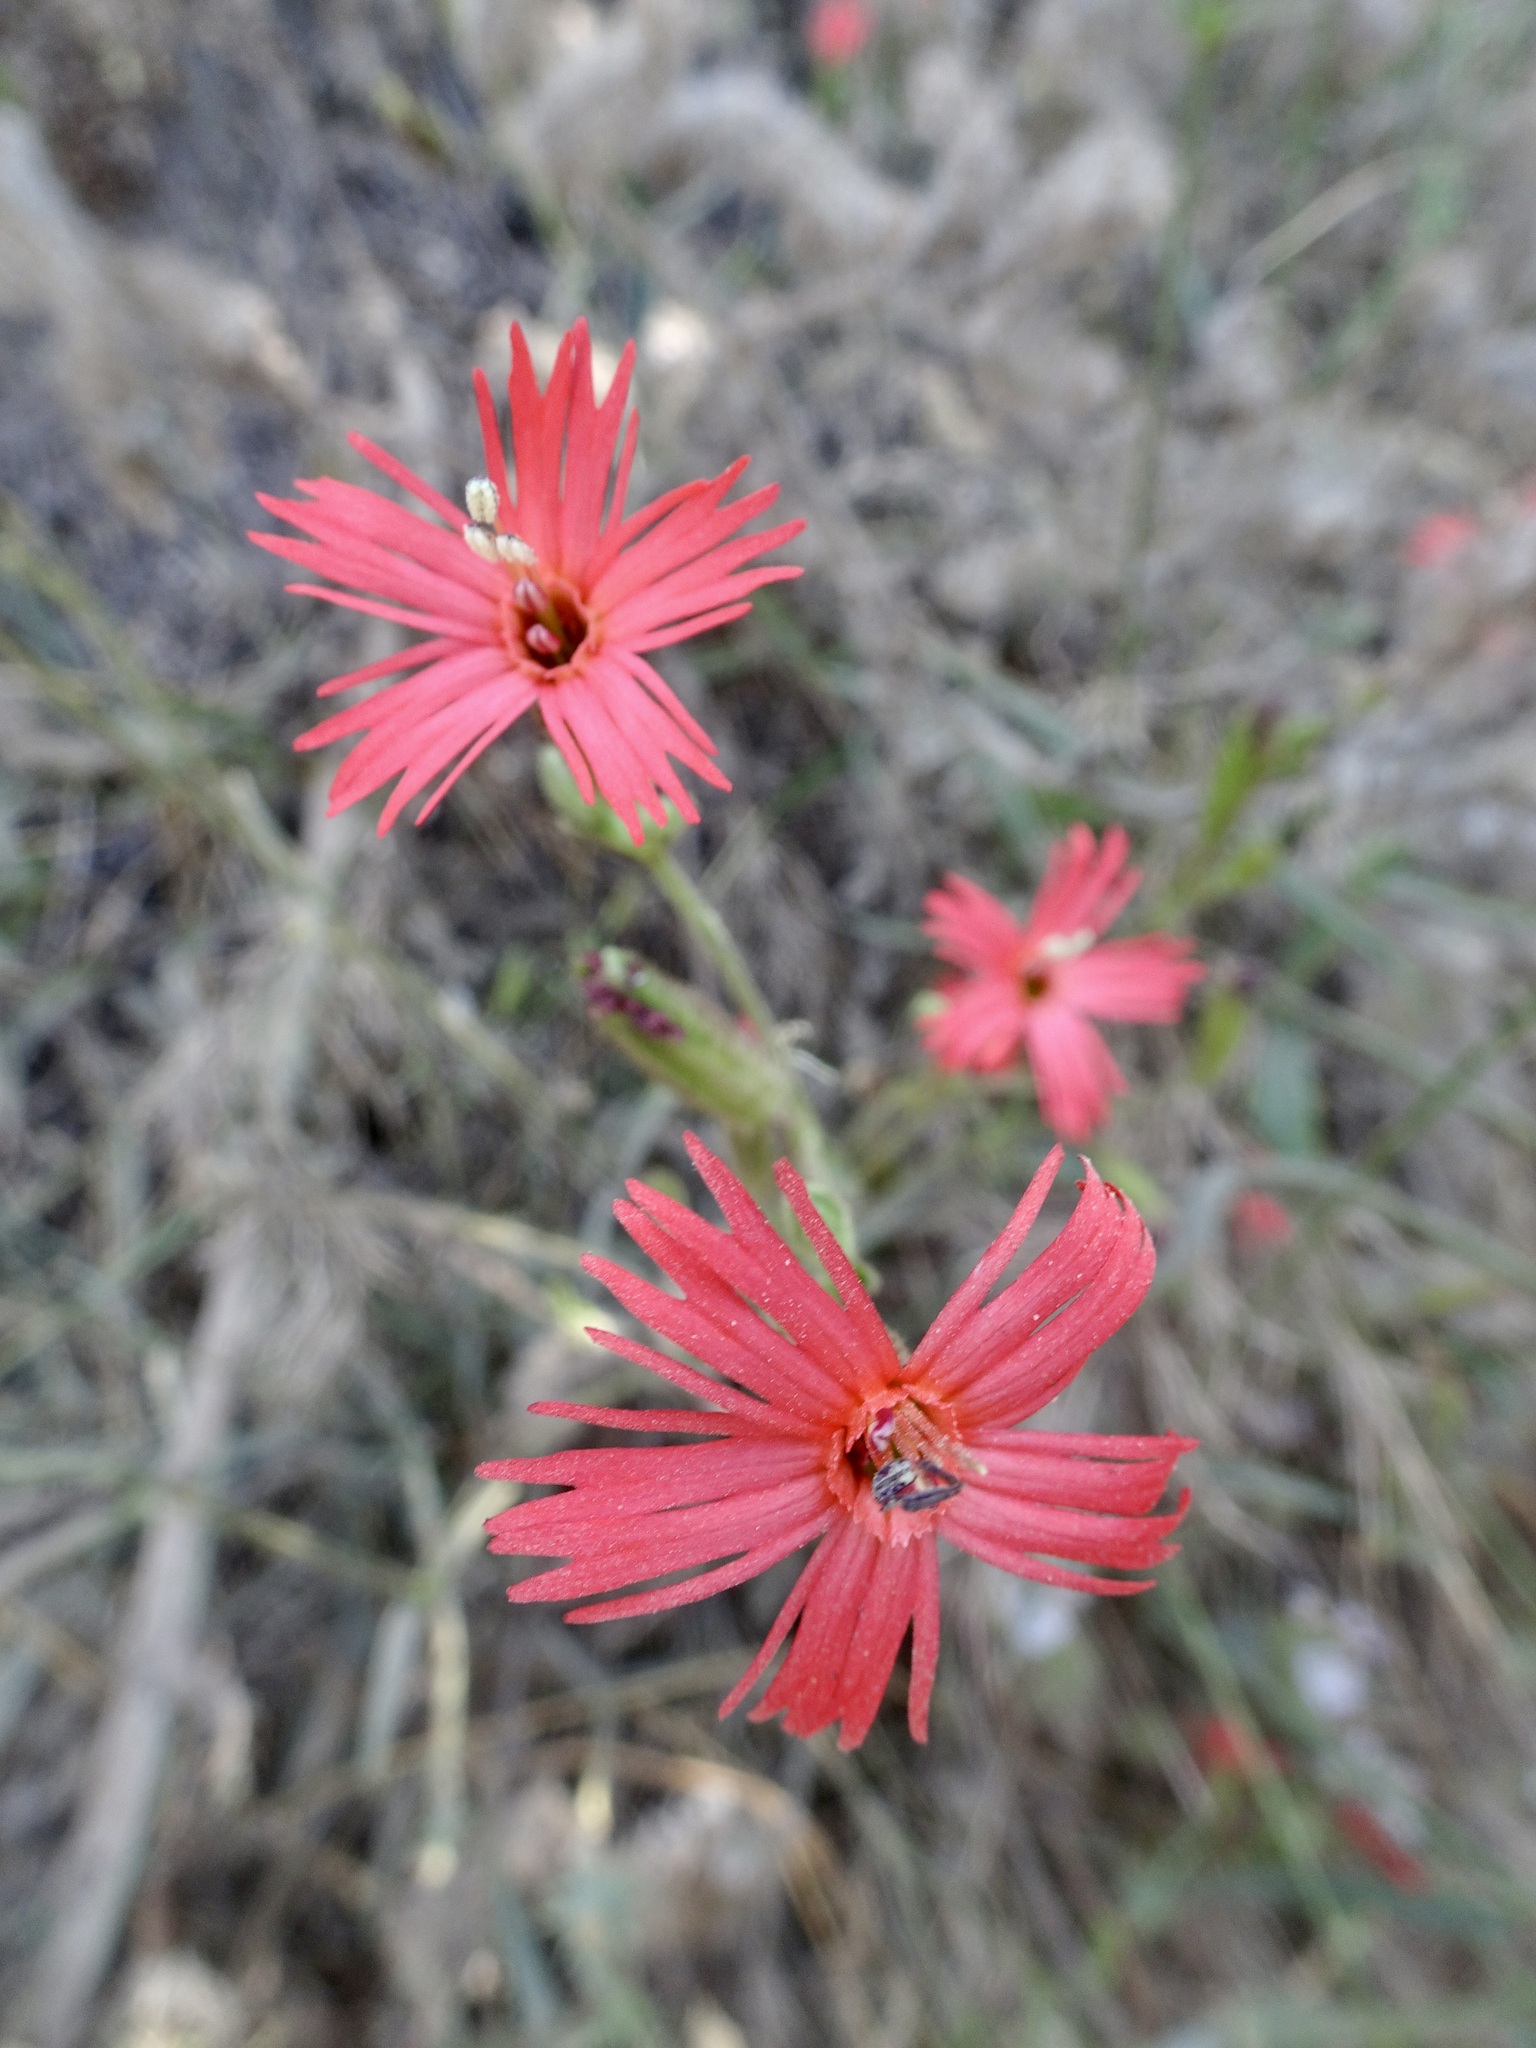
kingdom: Plantae
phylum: Tracheophyta
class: Magnoliopsida
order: Caryophyllales
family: Caryophyllaceae
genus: Silene
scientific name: Silene laciniata
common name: Indian-pink
